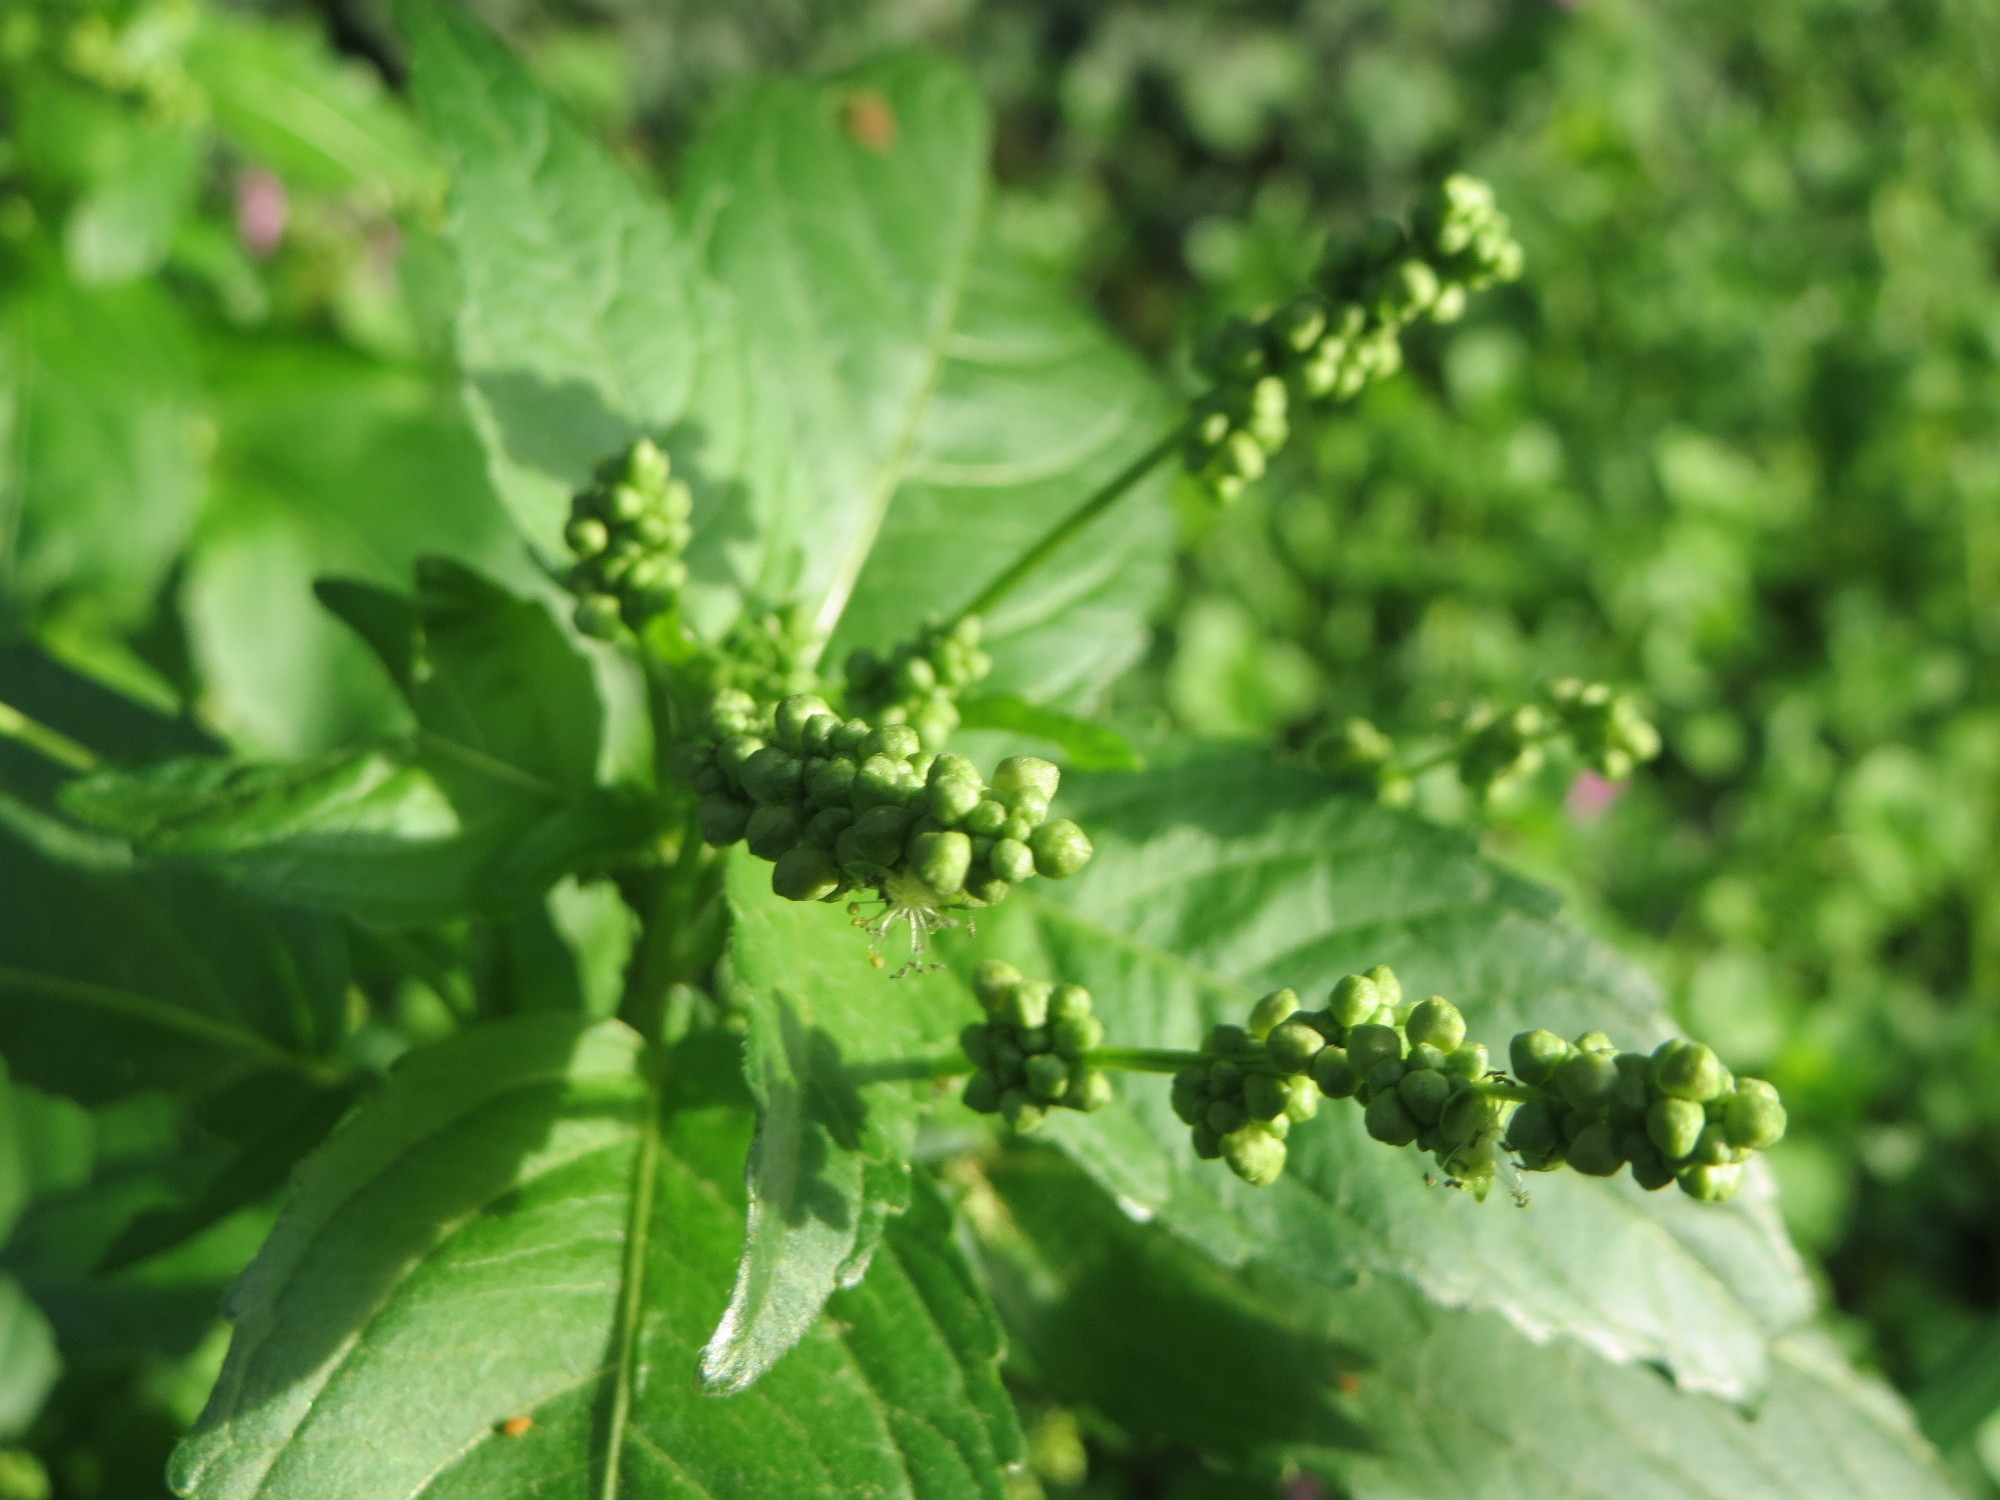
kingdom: Plantae
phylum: Tracheophyta
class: Magnoliopsida
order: Malpighiales
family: Euphorbiaceae
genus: Mercurialis
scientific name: Mercurialis annua
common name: Annual mercury
